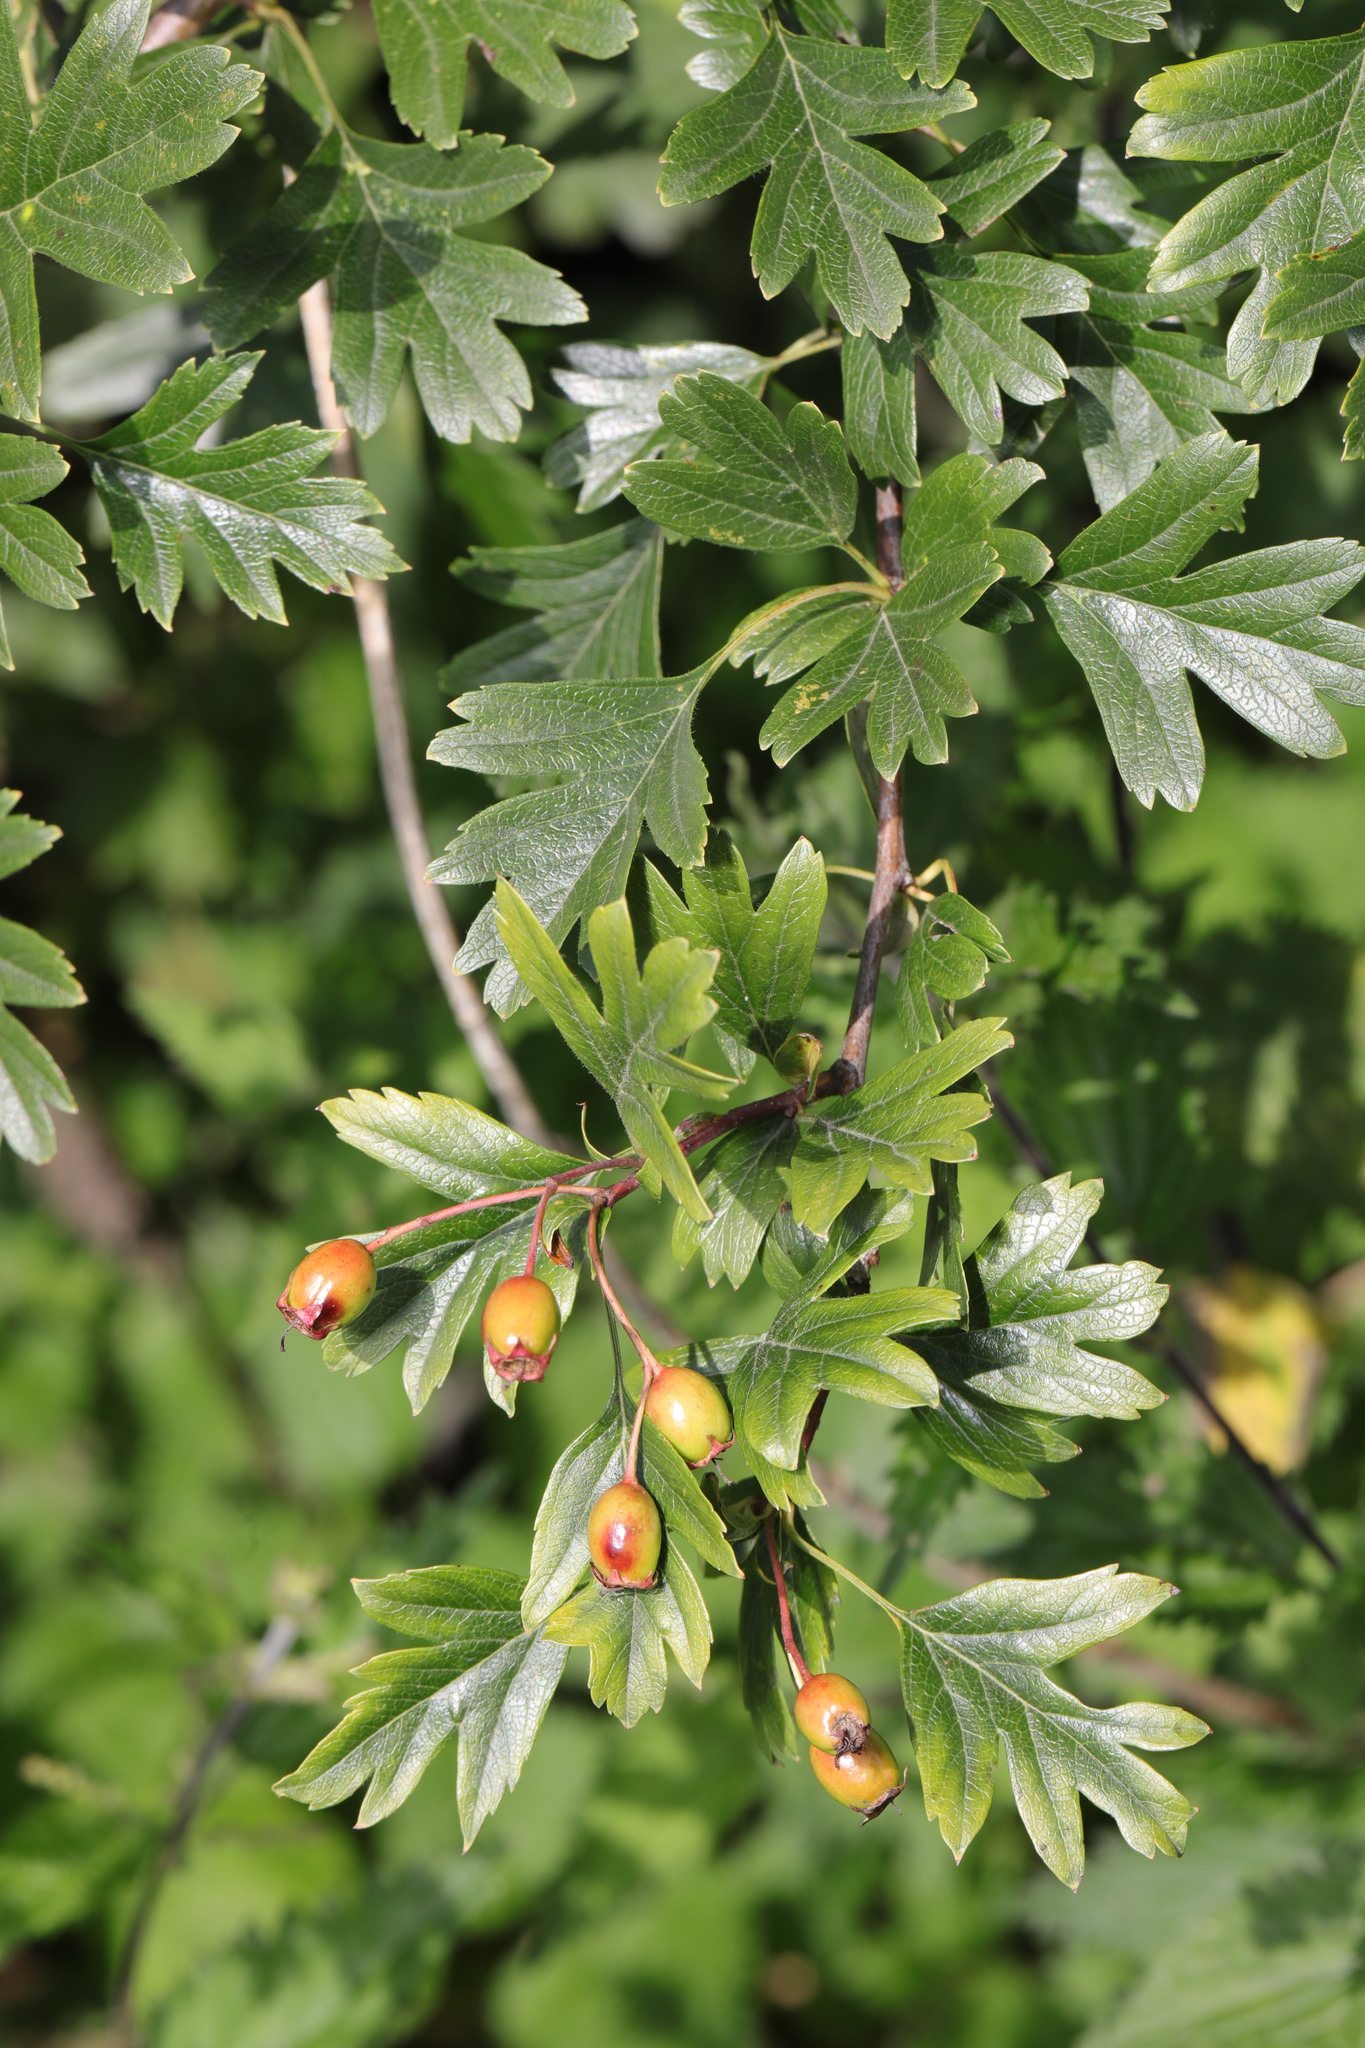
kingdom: Plantae
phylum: Tracheophyta
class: Magnoliopsida
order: Rosales
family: Rosaceae
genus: Crataegus
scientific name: Crataegus monogyna
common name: Hawthorn
